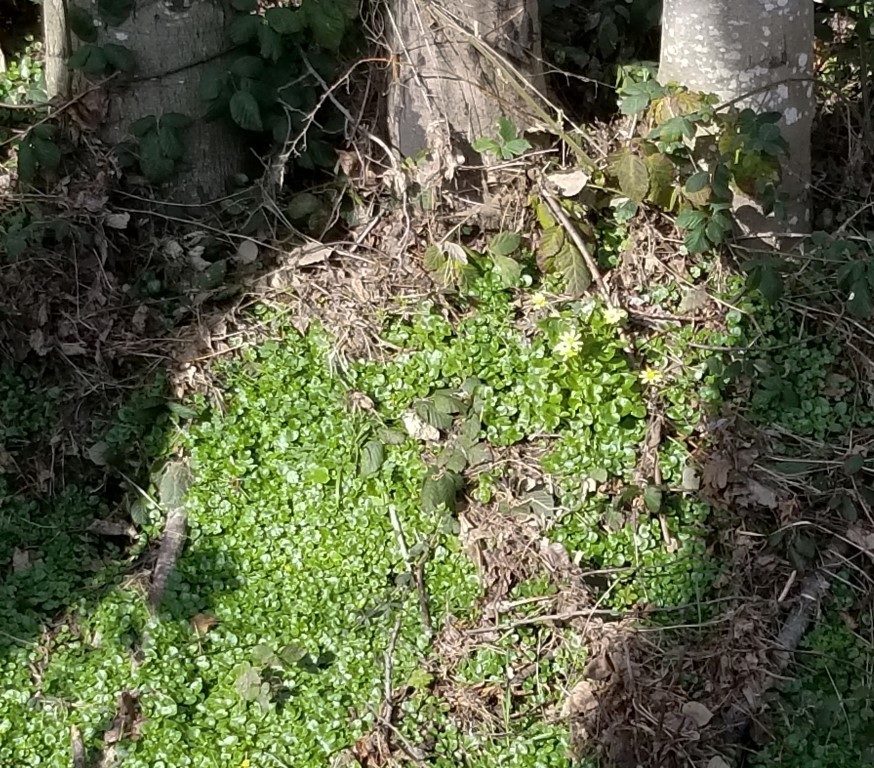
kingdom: Plantae
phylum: Tracheophyta
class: Magnoliopsida
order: Ranunculales
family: Ranunculaceae
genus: Ficaria
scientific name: Ficaria verna
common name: Lesser celandine
